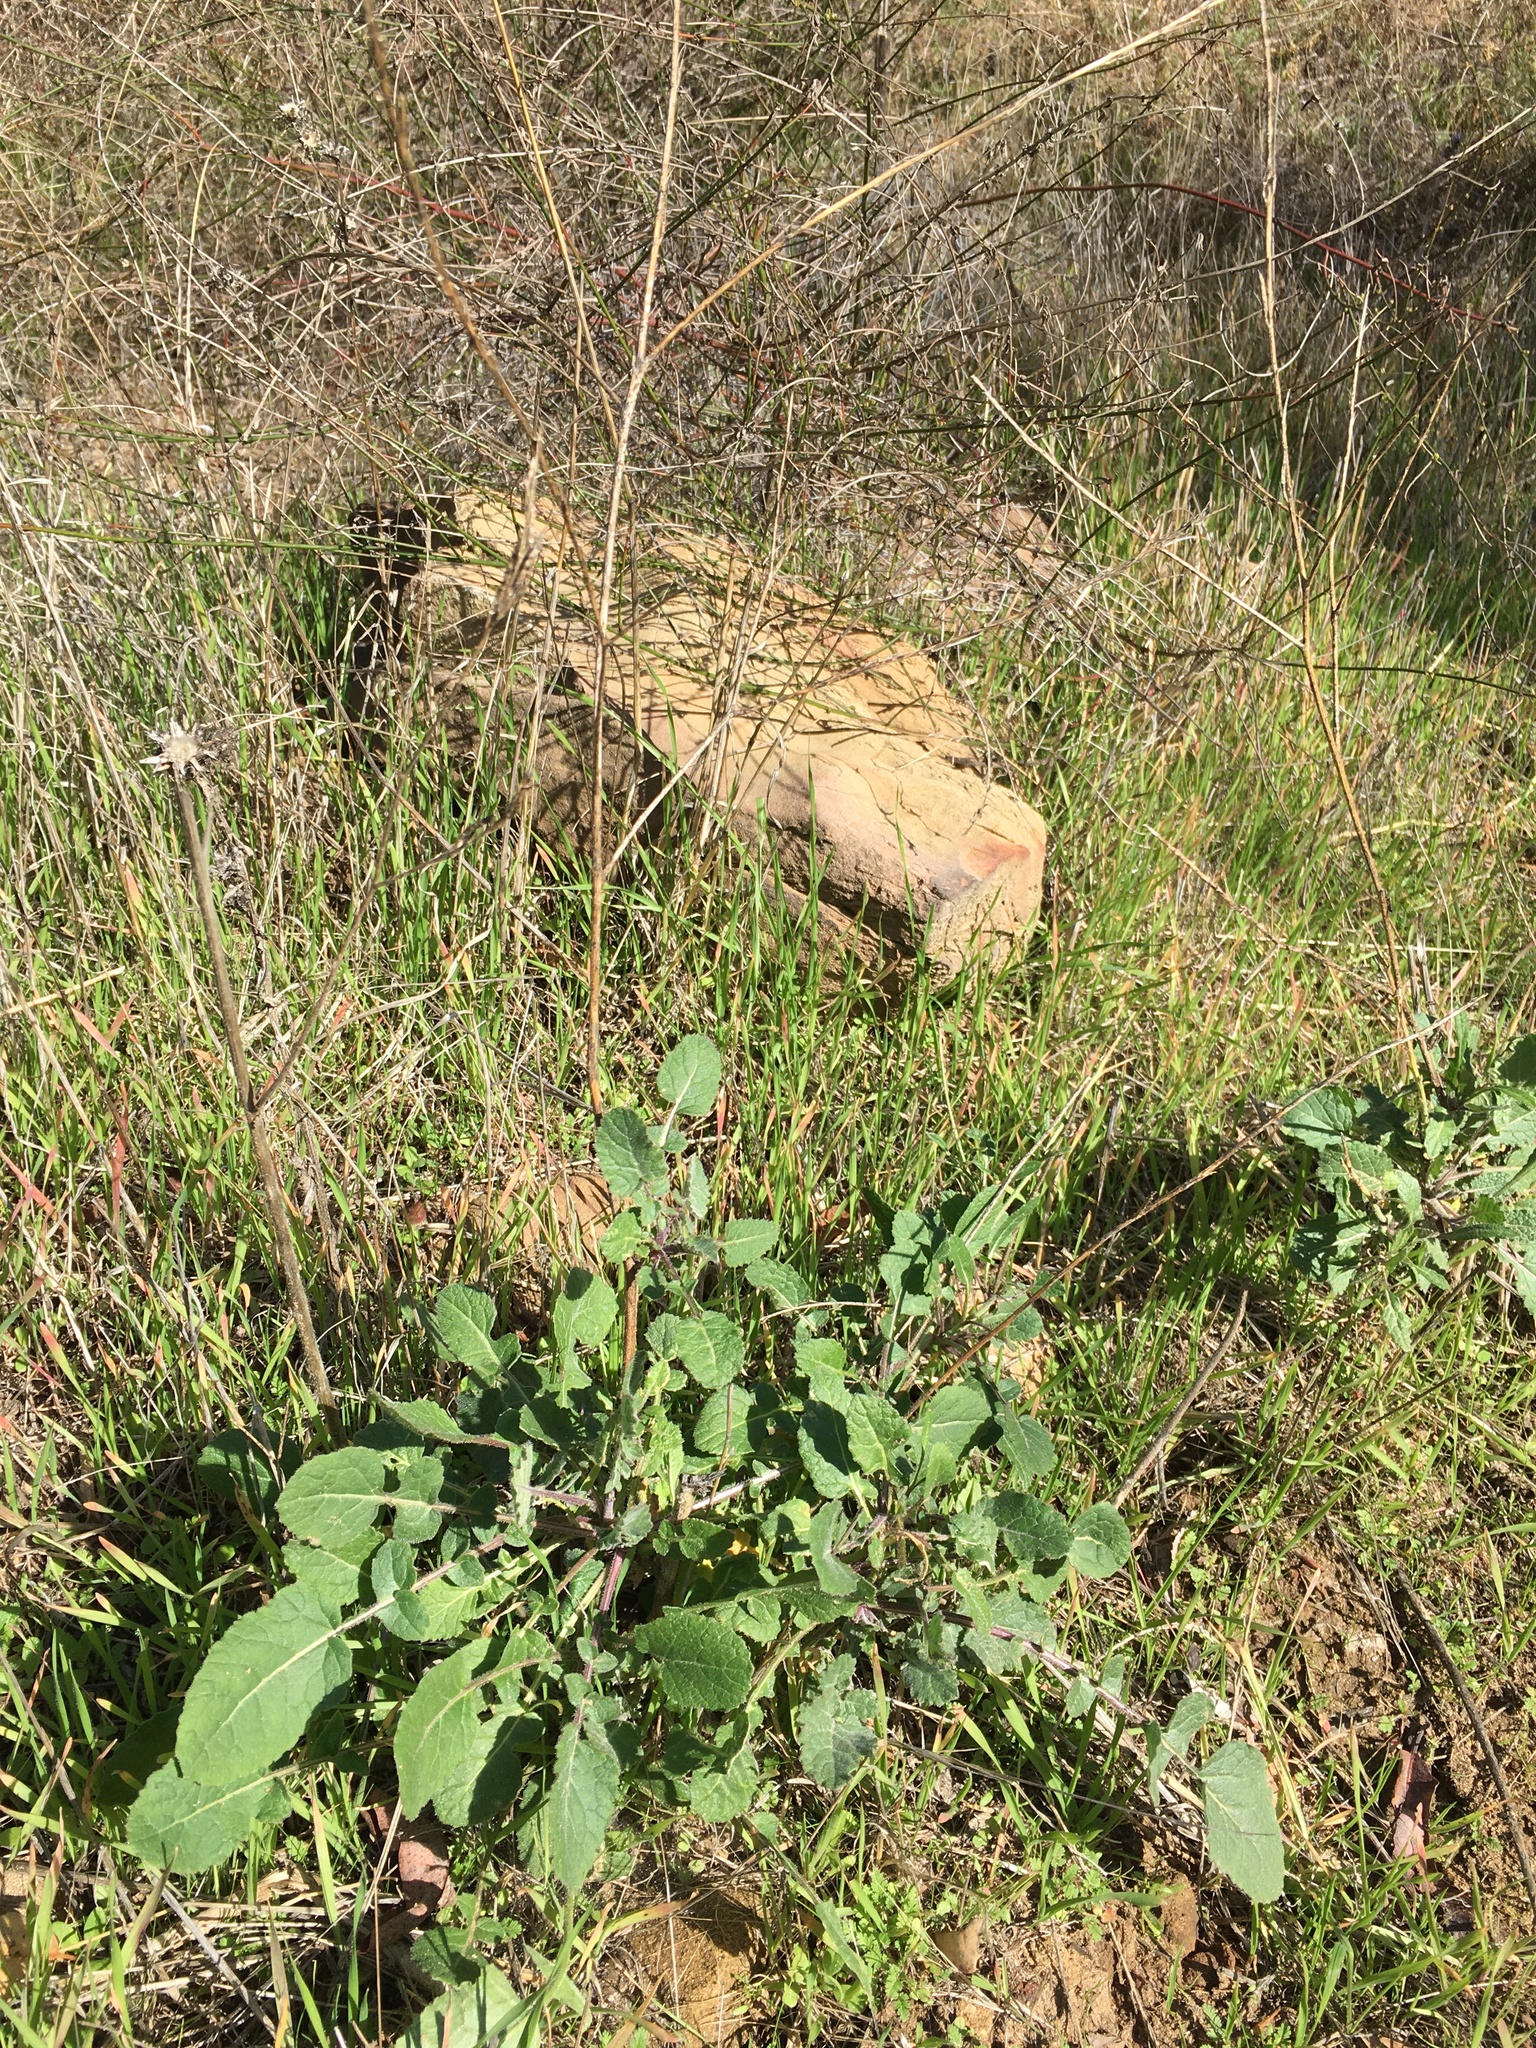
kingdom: Plantae
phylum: Tracheophyta
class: Magnoliopsida
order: Brassicales
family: Brassicaceae
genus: Hirschfeldia
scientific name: Hirschfeldia incana
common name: Hoary mustard
